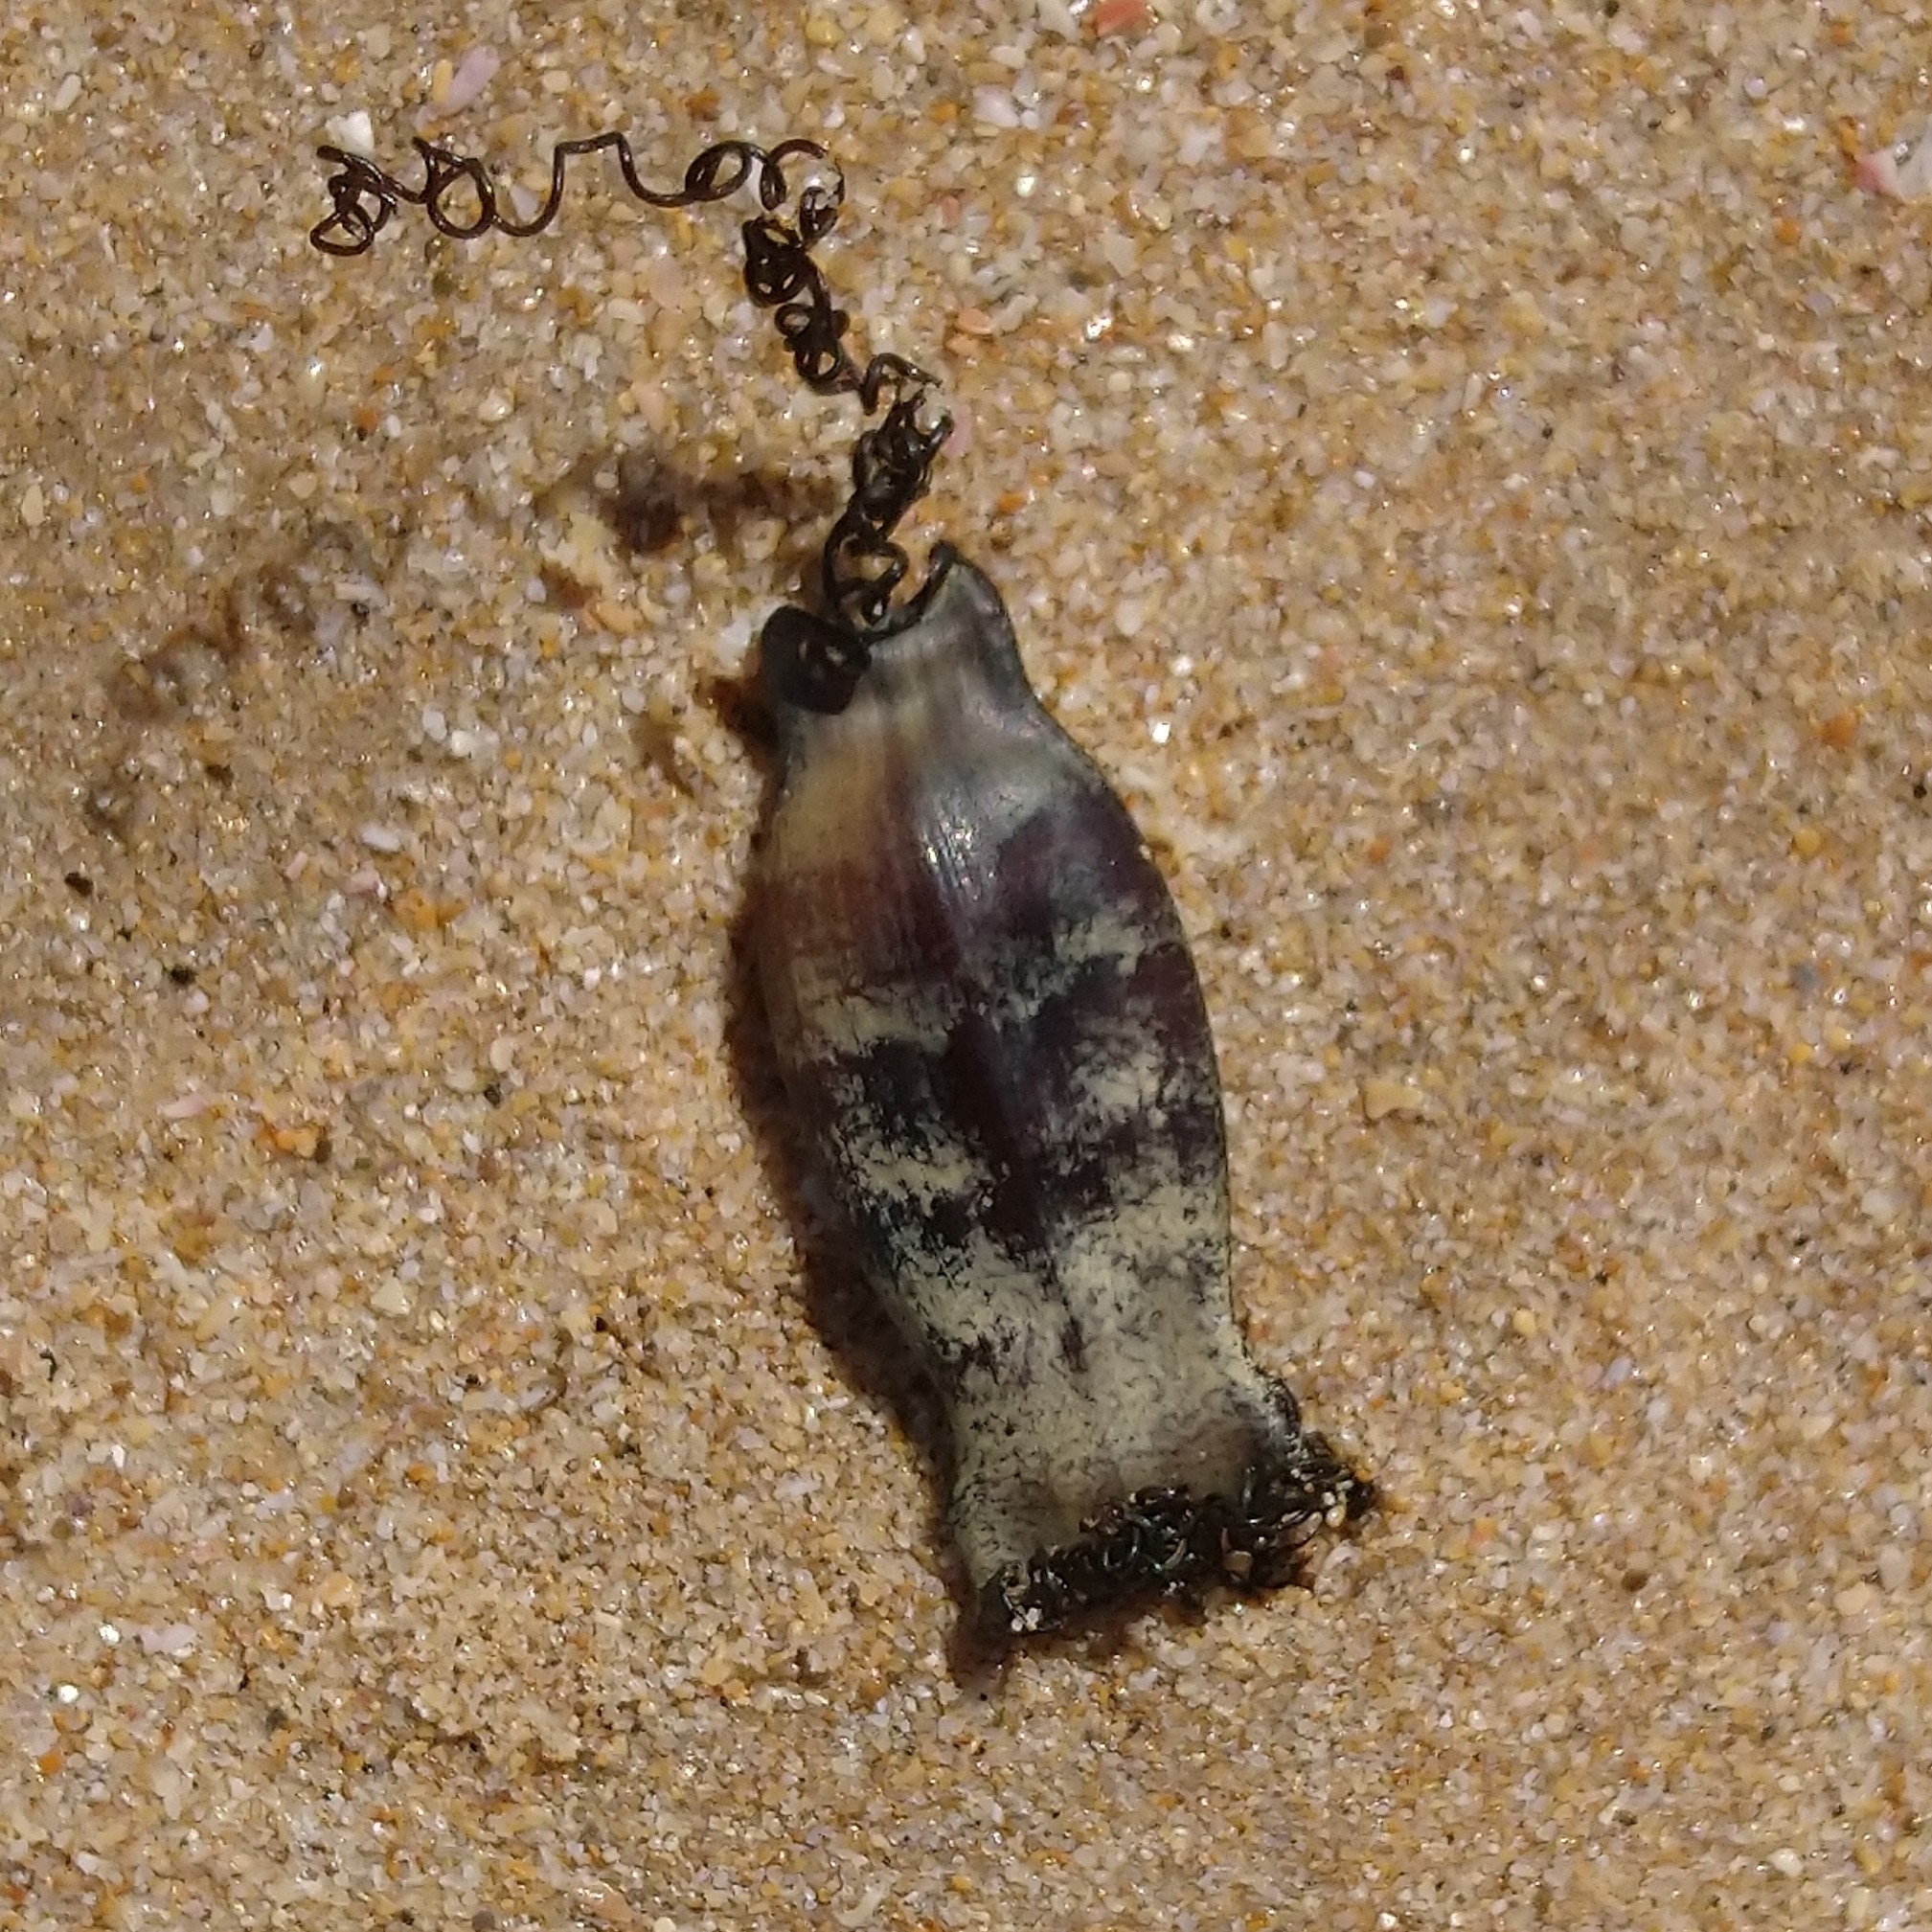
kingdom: Animalia
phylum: Chordata
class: Elasmobranchii
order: Carcharhiniformes
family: Scyliorhinidae
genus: Haploblepharus
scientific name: Haploblepharus edwardsii
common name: Puffadder shyshark
